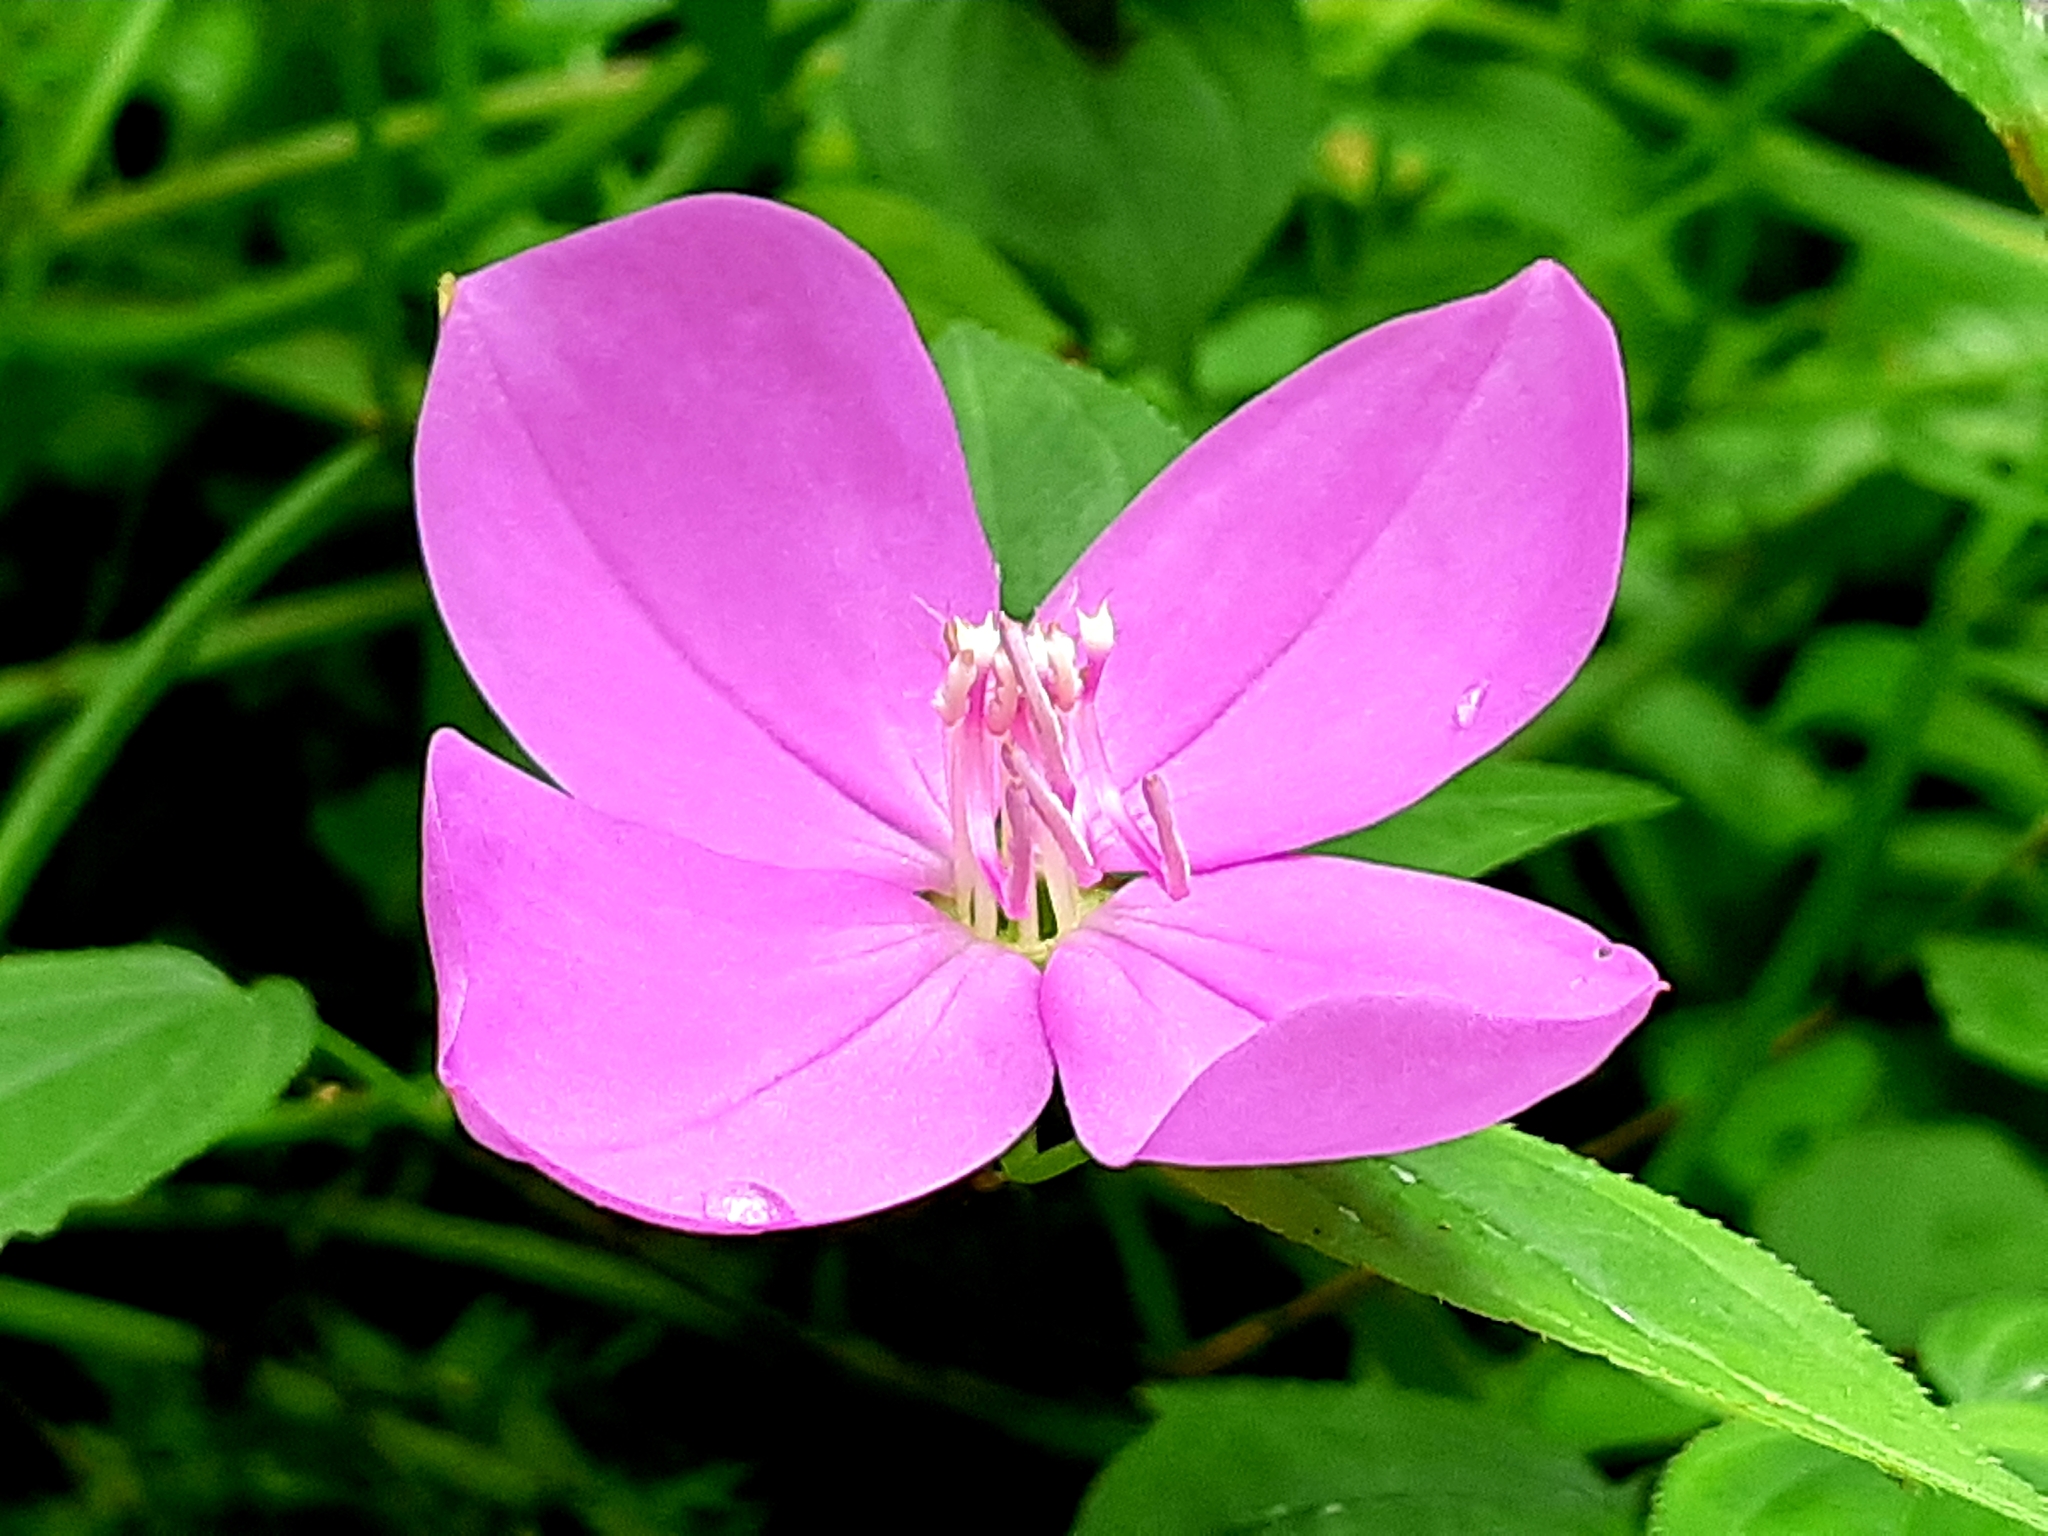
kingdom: Plantae
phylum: Tracheophyta
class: Magnoliopsida
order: Myrtales
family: Melastomataceae
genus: Arthrostemma
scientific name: Arthrostemma ciliatum
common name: Everblooming eavender
